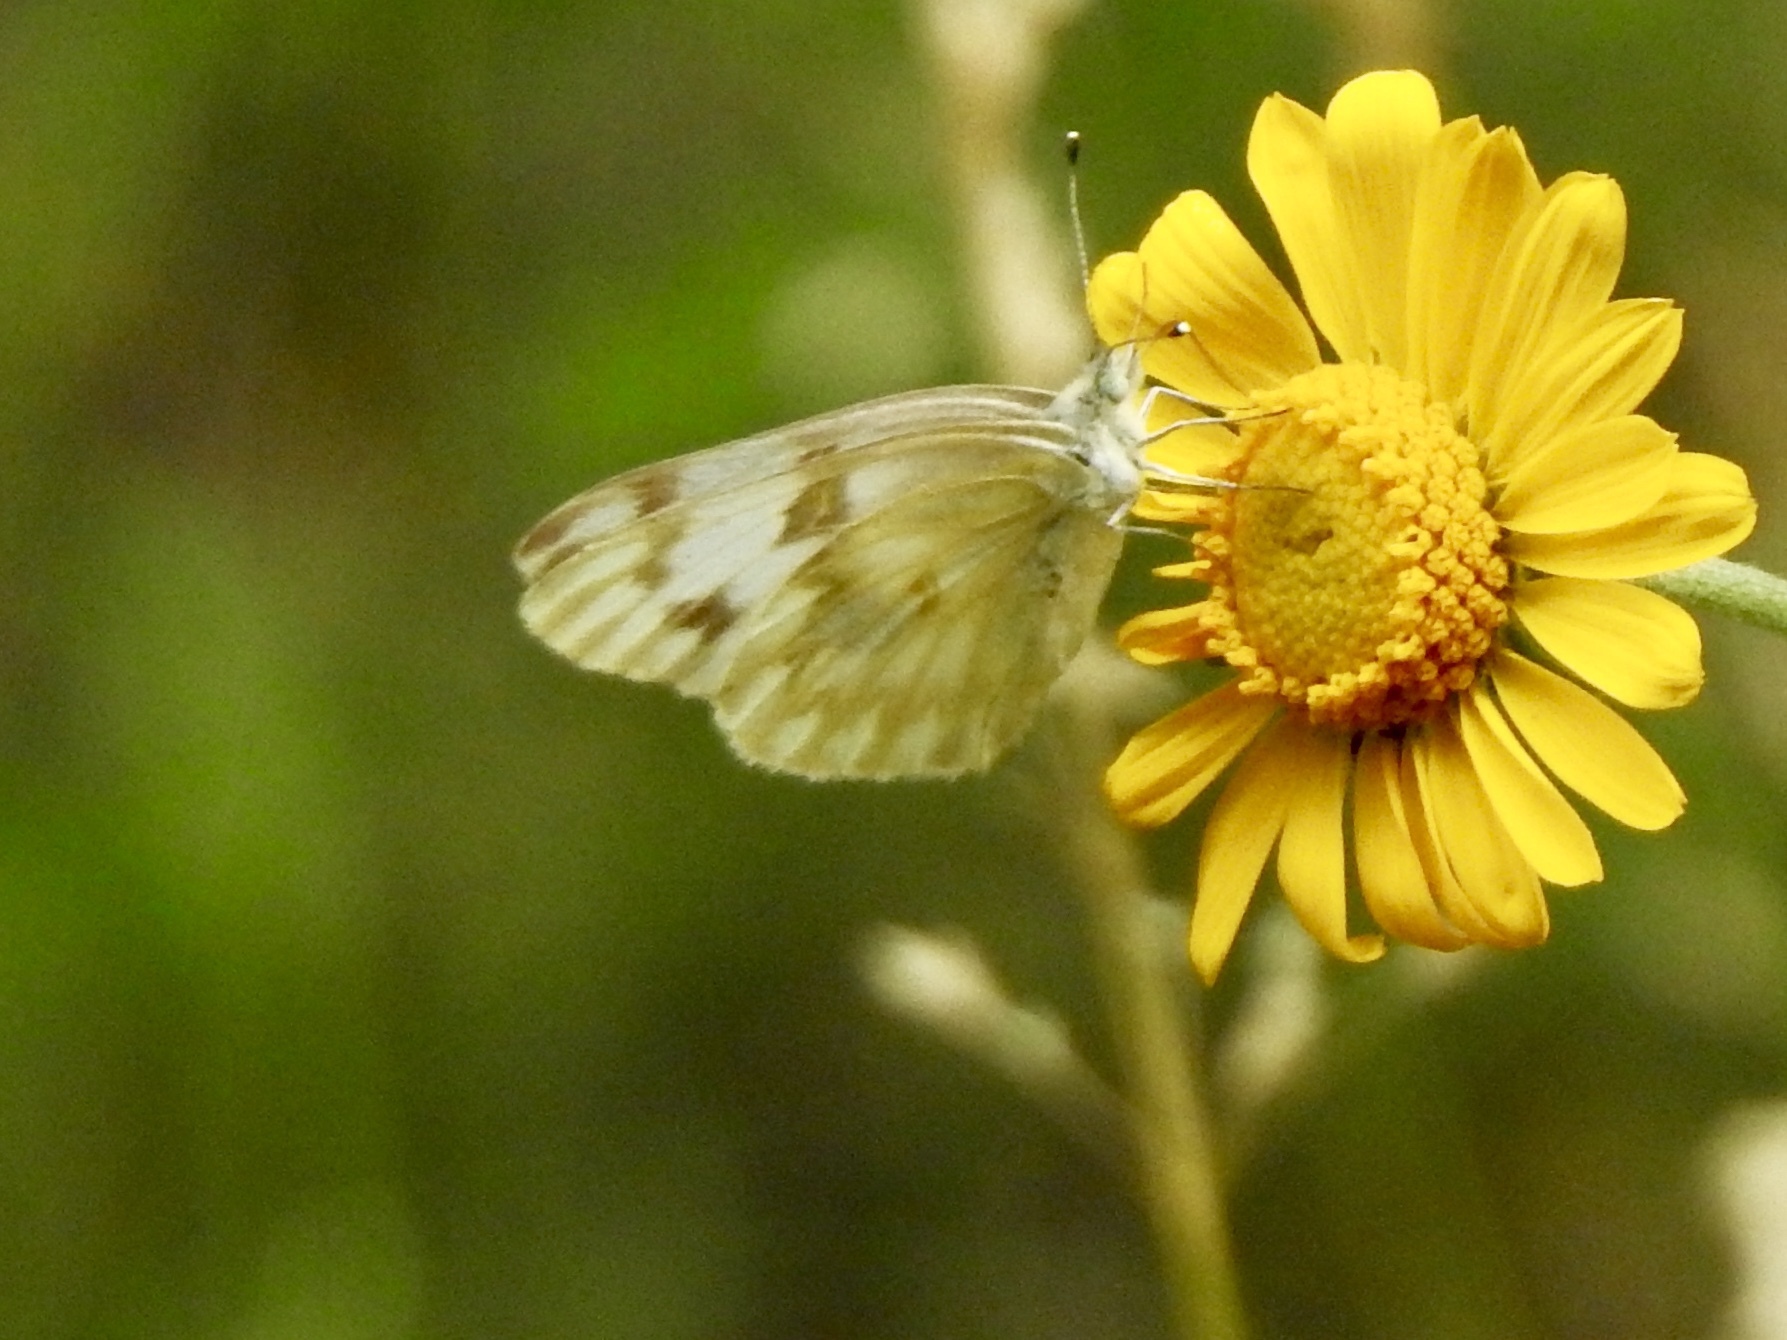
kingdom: Animalia
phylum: Arthropoda
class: Insecta
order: Lepidoptera
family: Pieridae
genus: Pontia
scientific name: Pontia protodice
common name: Checkered white
